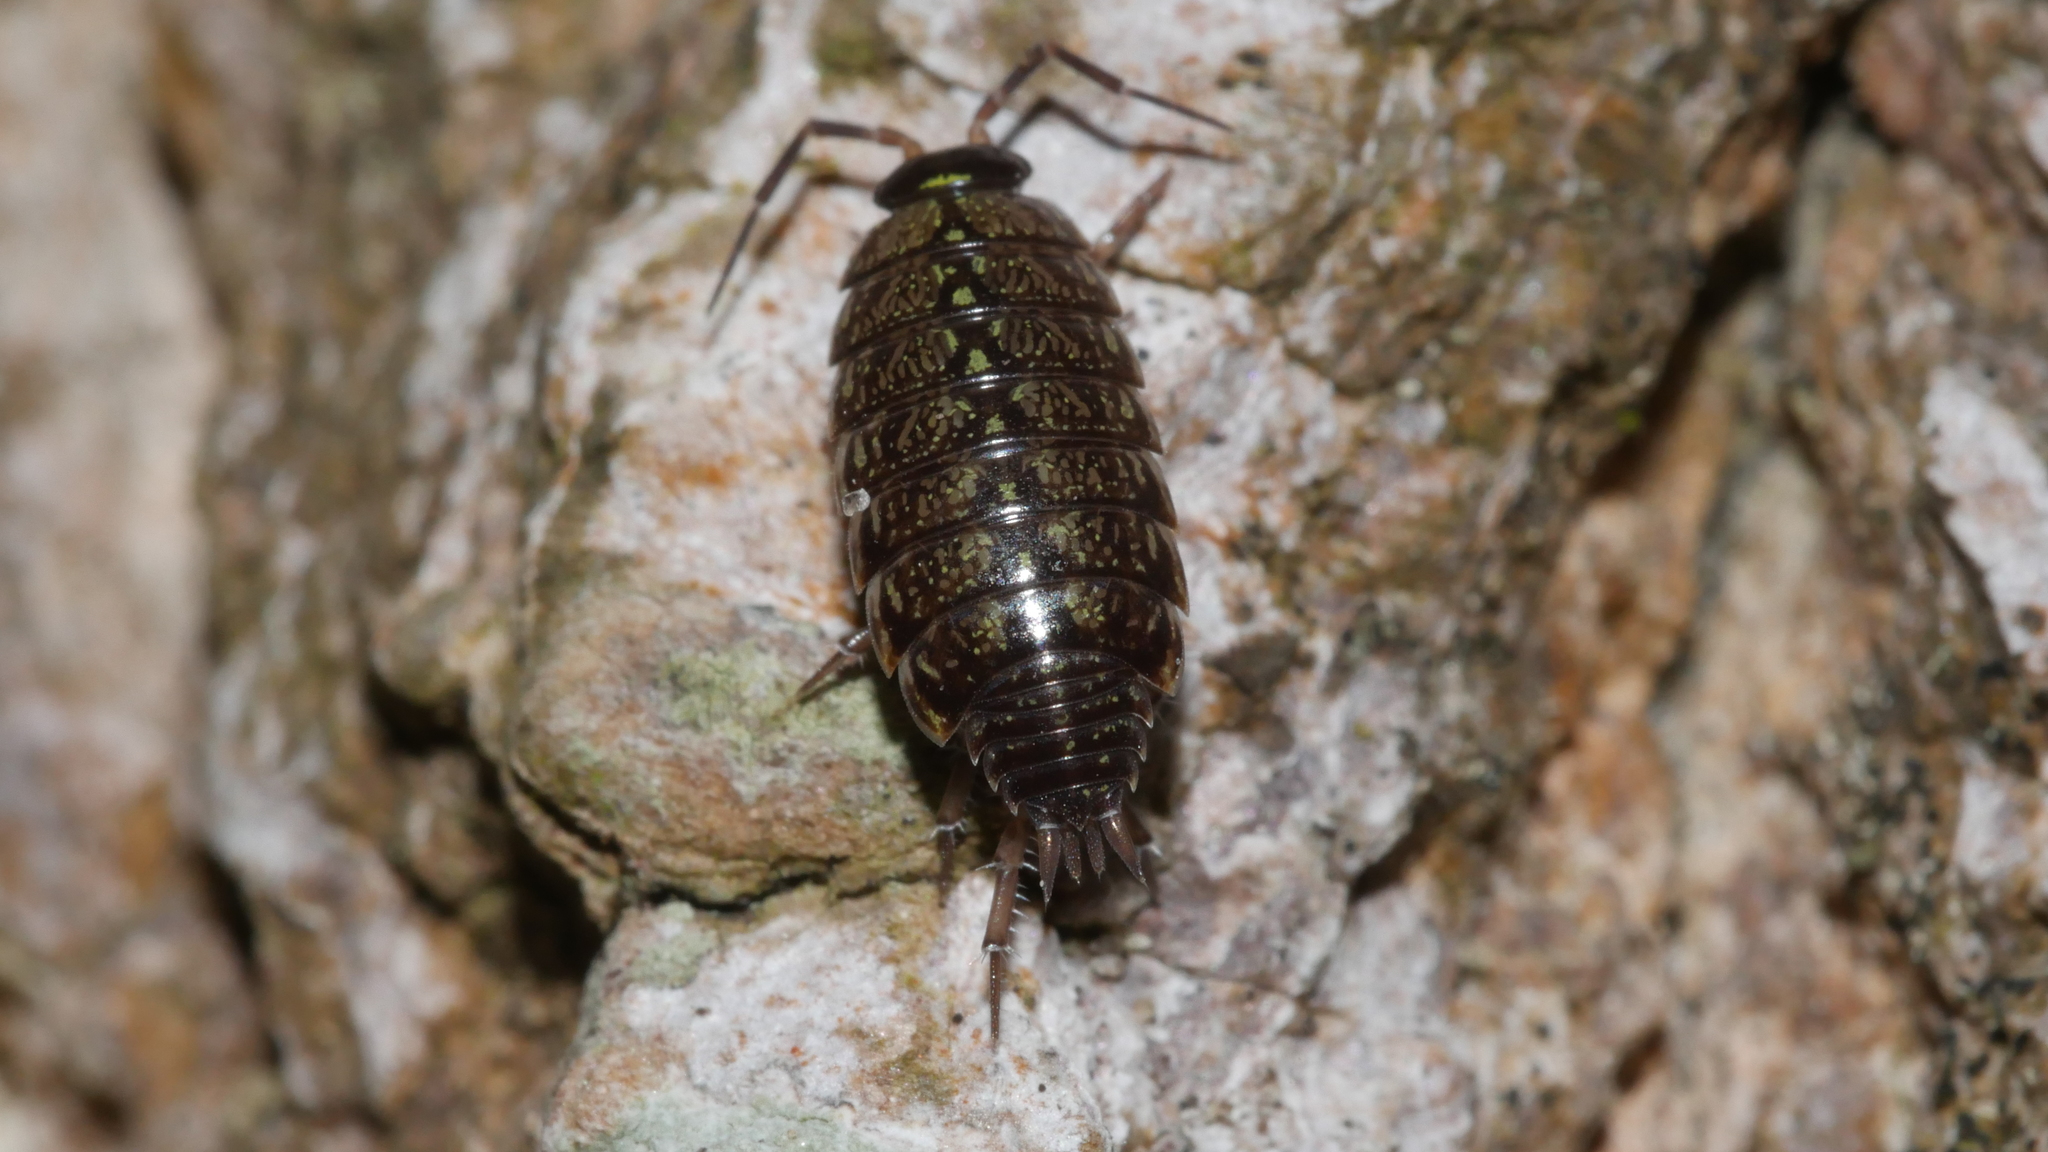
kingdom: Animalia
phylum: Arthropoda
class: Malacostraca
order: Isopoda
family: Philosciidae
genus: Philoscia
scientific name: Philoscia muscorum
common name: Common striped woodlouse
